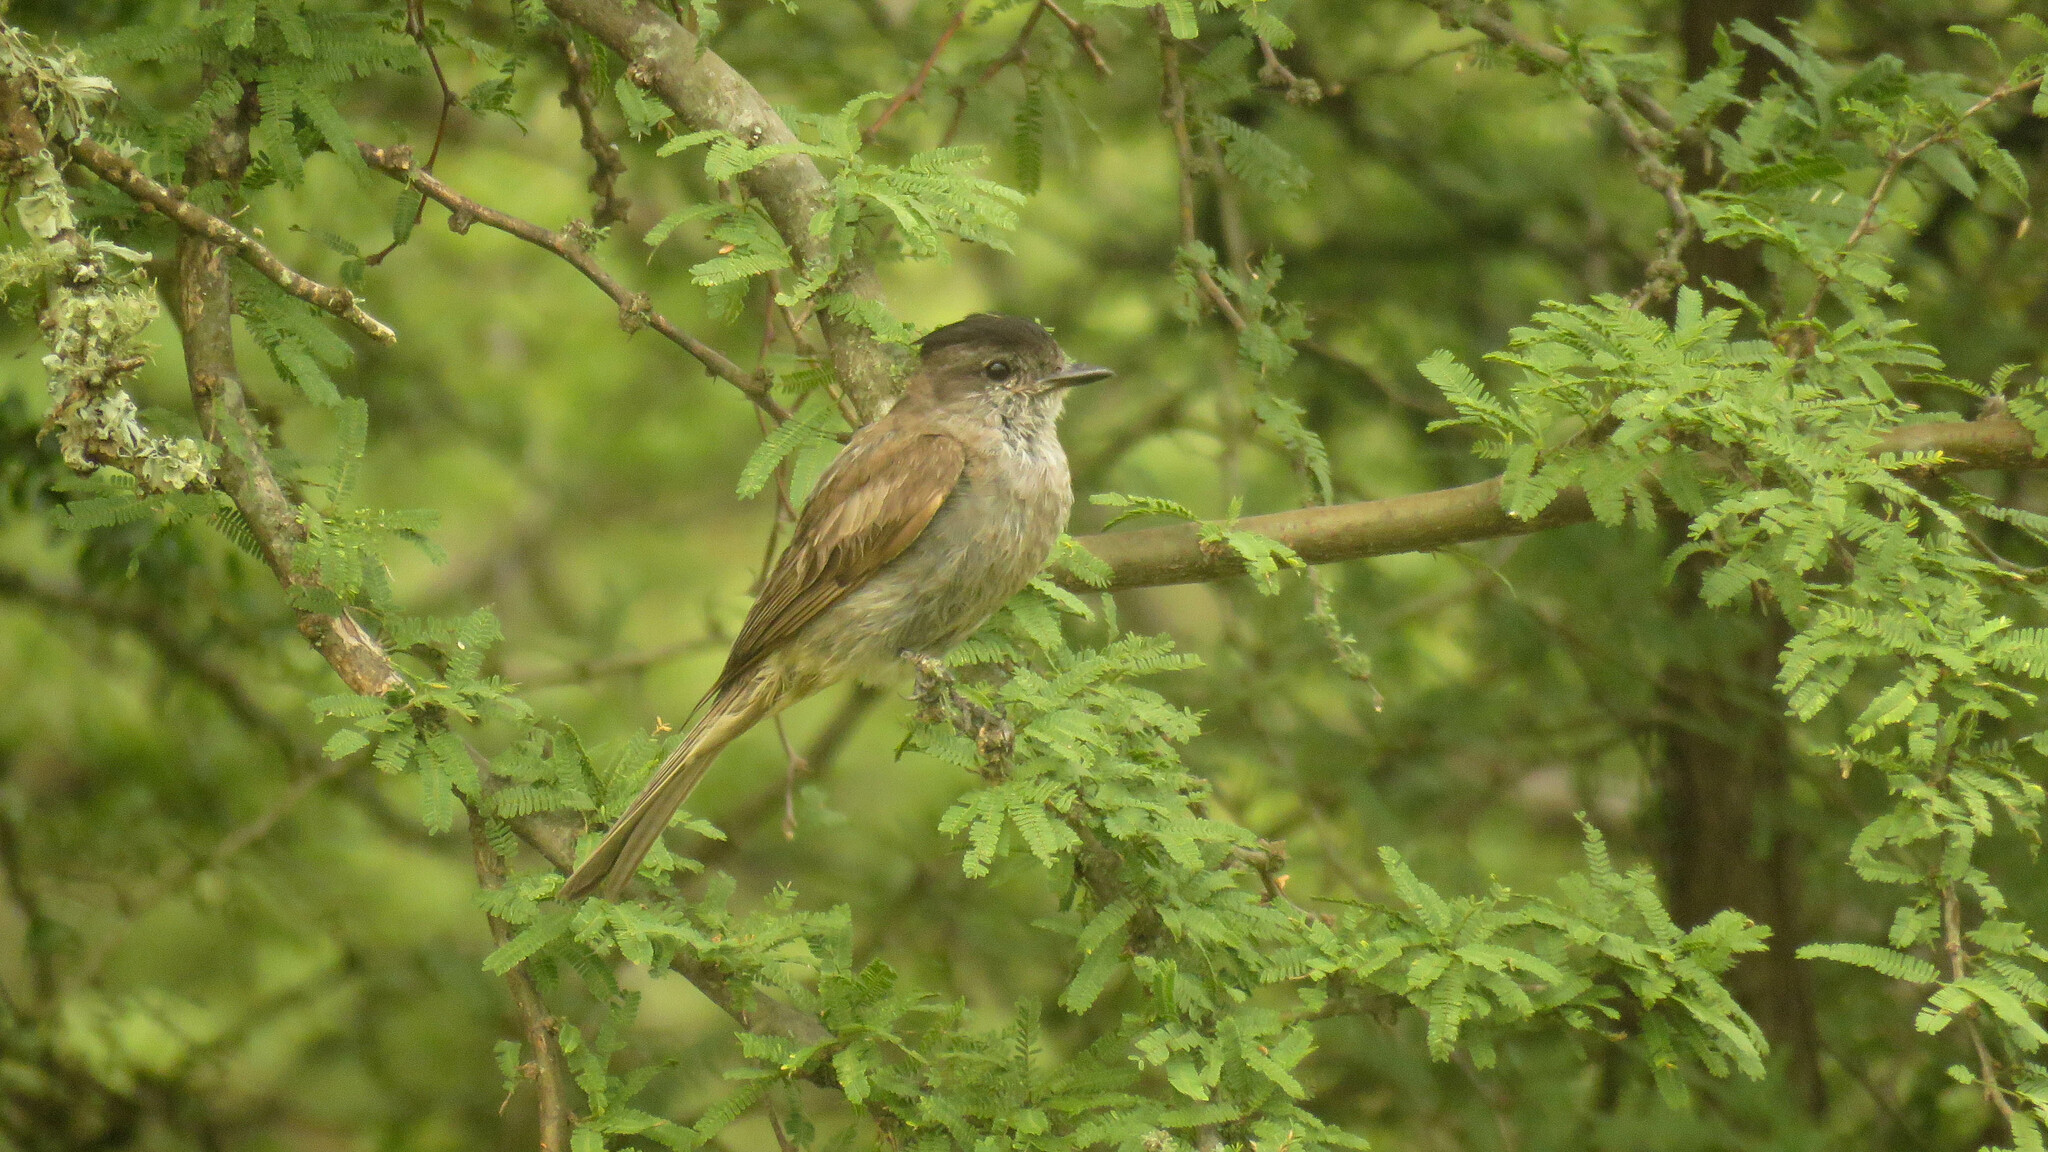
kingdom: Animalia
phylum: Chordata
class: Aves
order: Passeriformes
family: Tyrannidae
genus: Empidonomus
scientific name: Empidonomus aurantioatrocristatus
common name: Crowned slaty flycatcher
